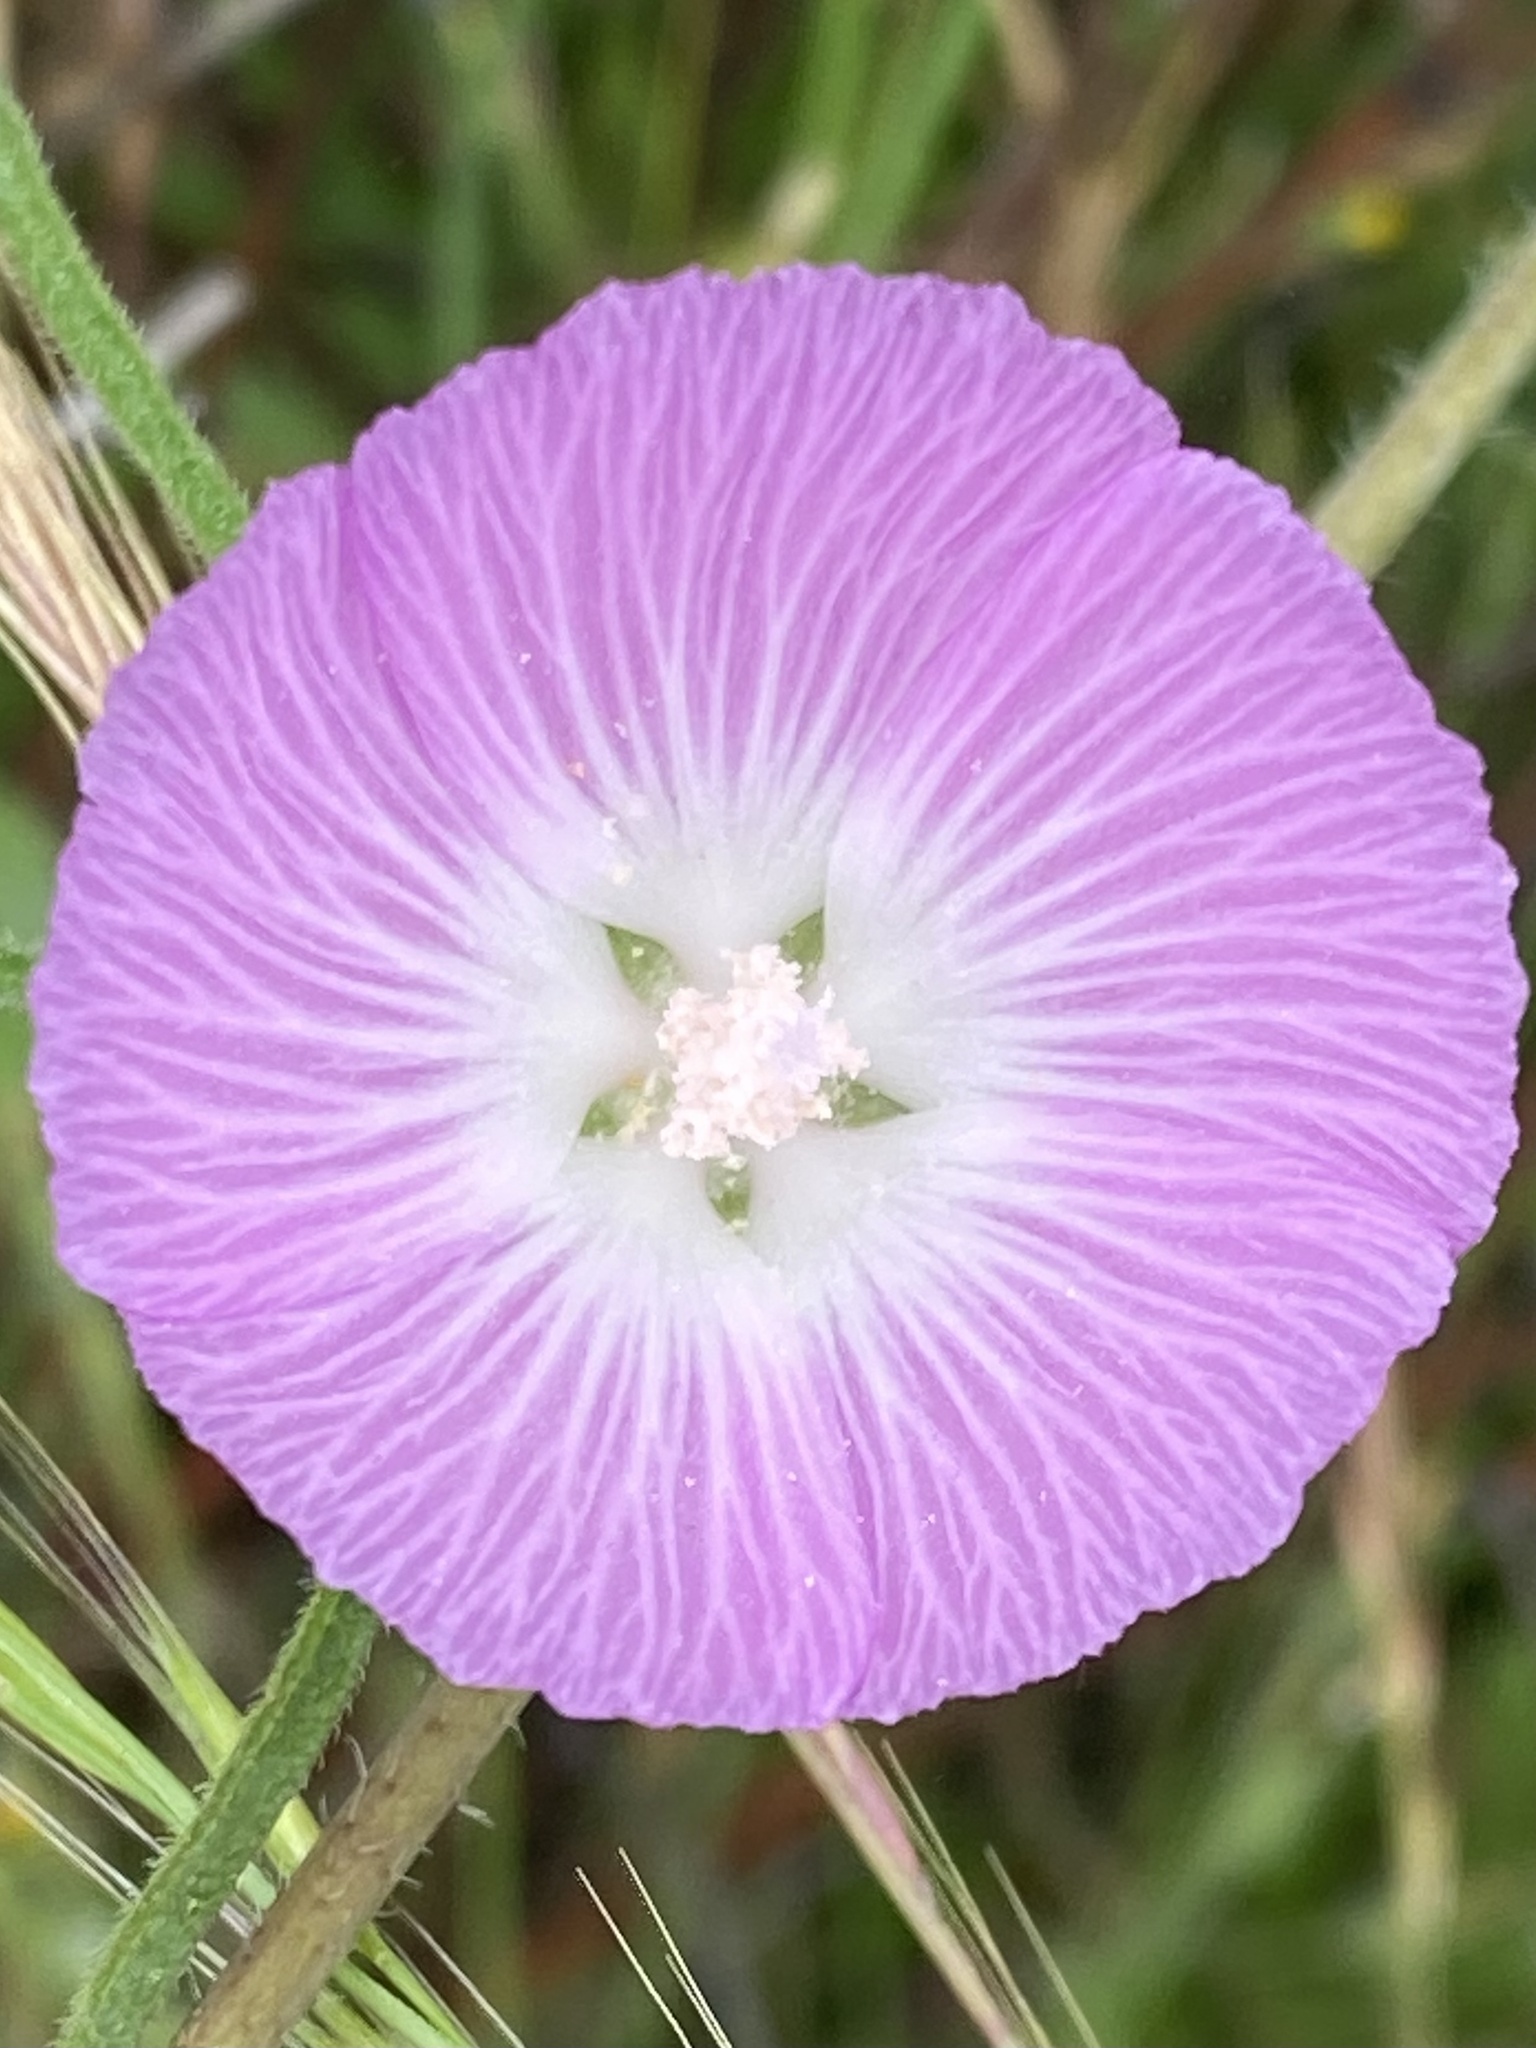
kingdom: Plantae
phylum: Tracheophyta
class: Magnoliopsida
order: Malvales
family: Malvaceae
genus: Sidalcea
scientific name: Sidalcea sparsifolia
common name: Southern checkerbloom
